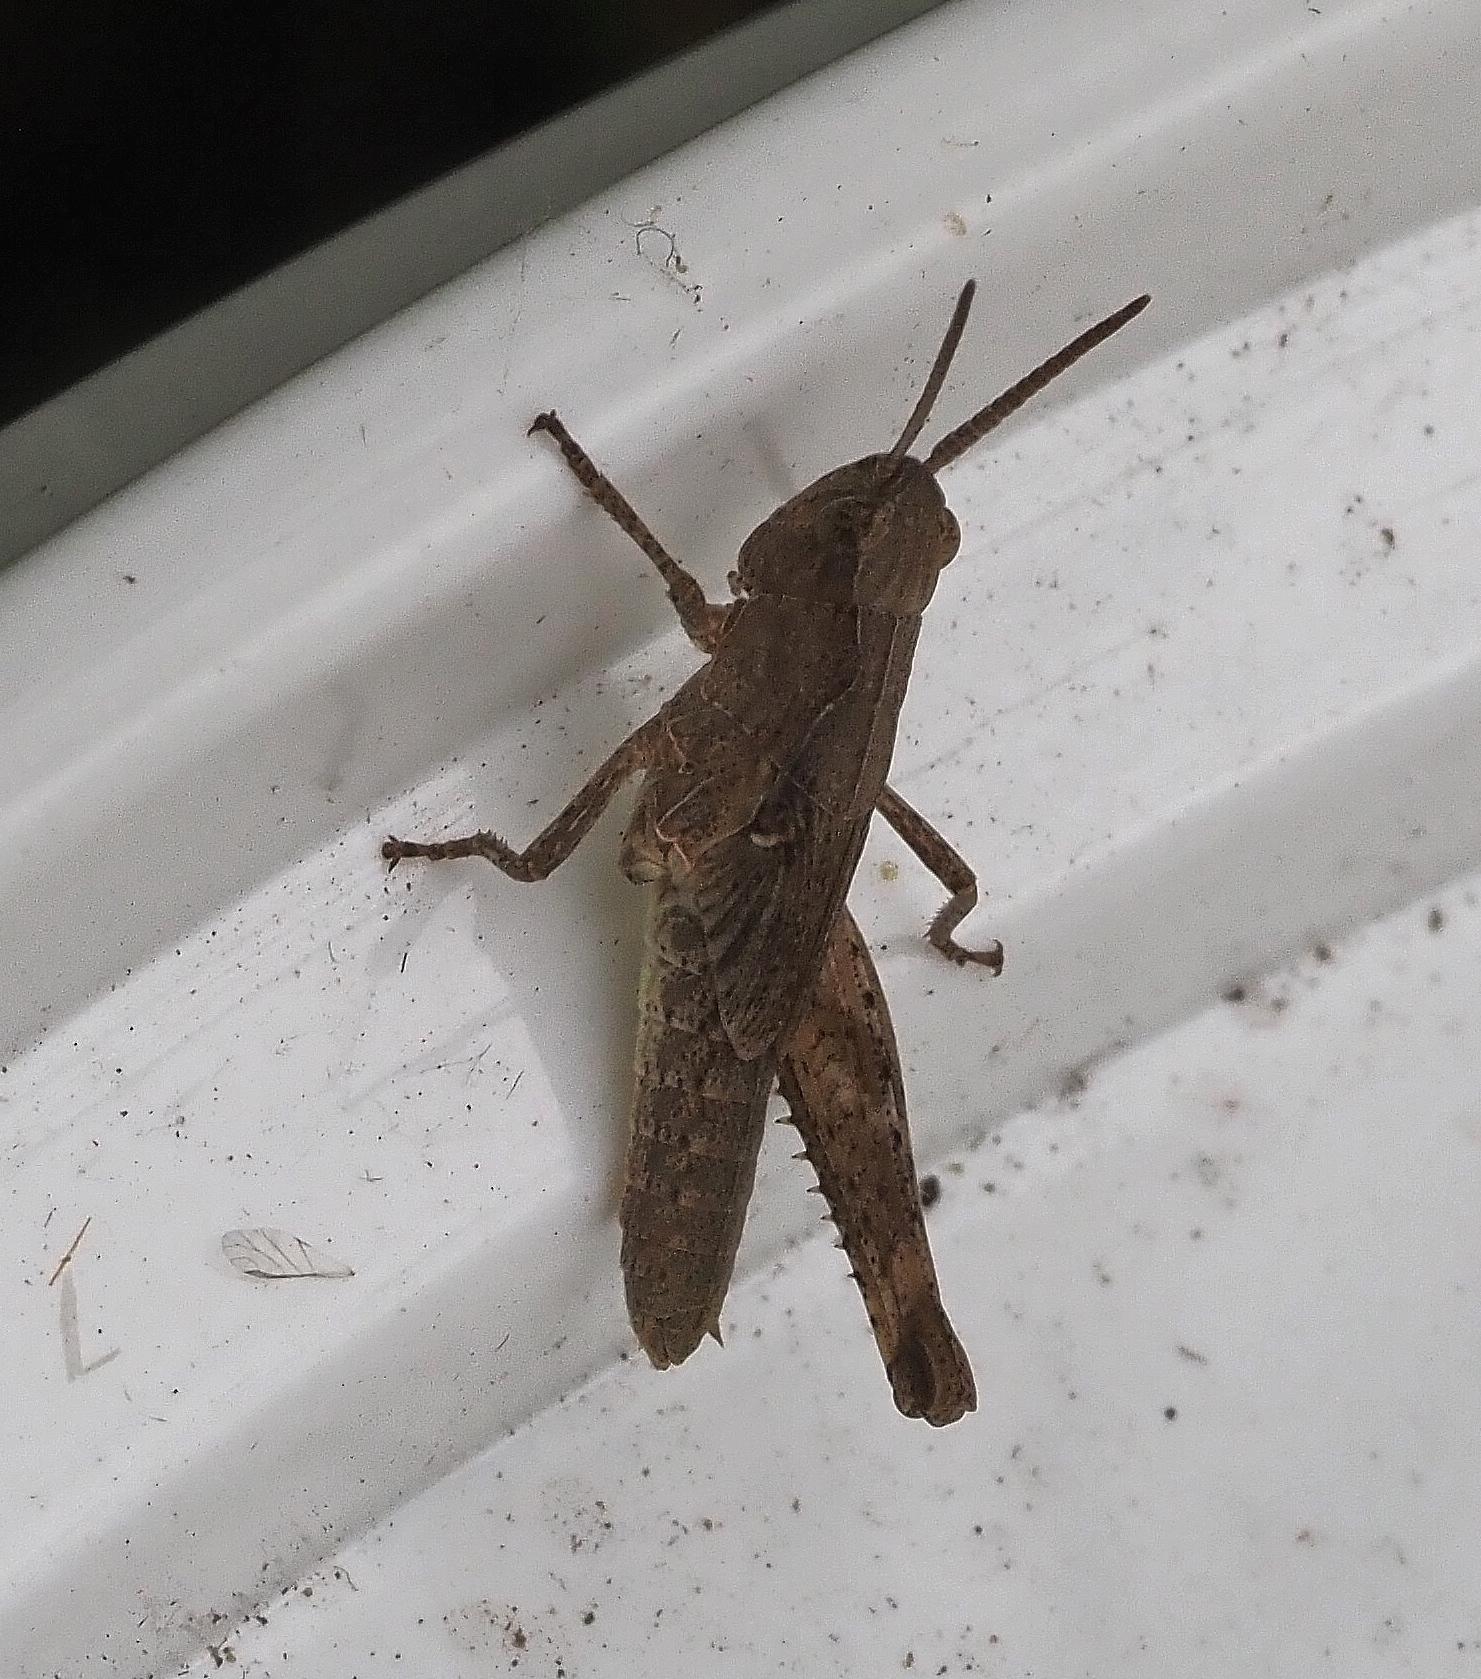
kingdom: Animalia
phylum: Arthropoda
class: Insecta
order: Orthoptera
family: Acrididae
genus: Chorthippus
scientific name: Chorthippus brunneus
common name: Field grasshopper
